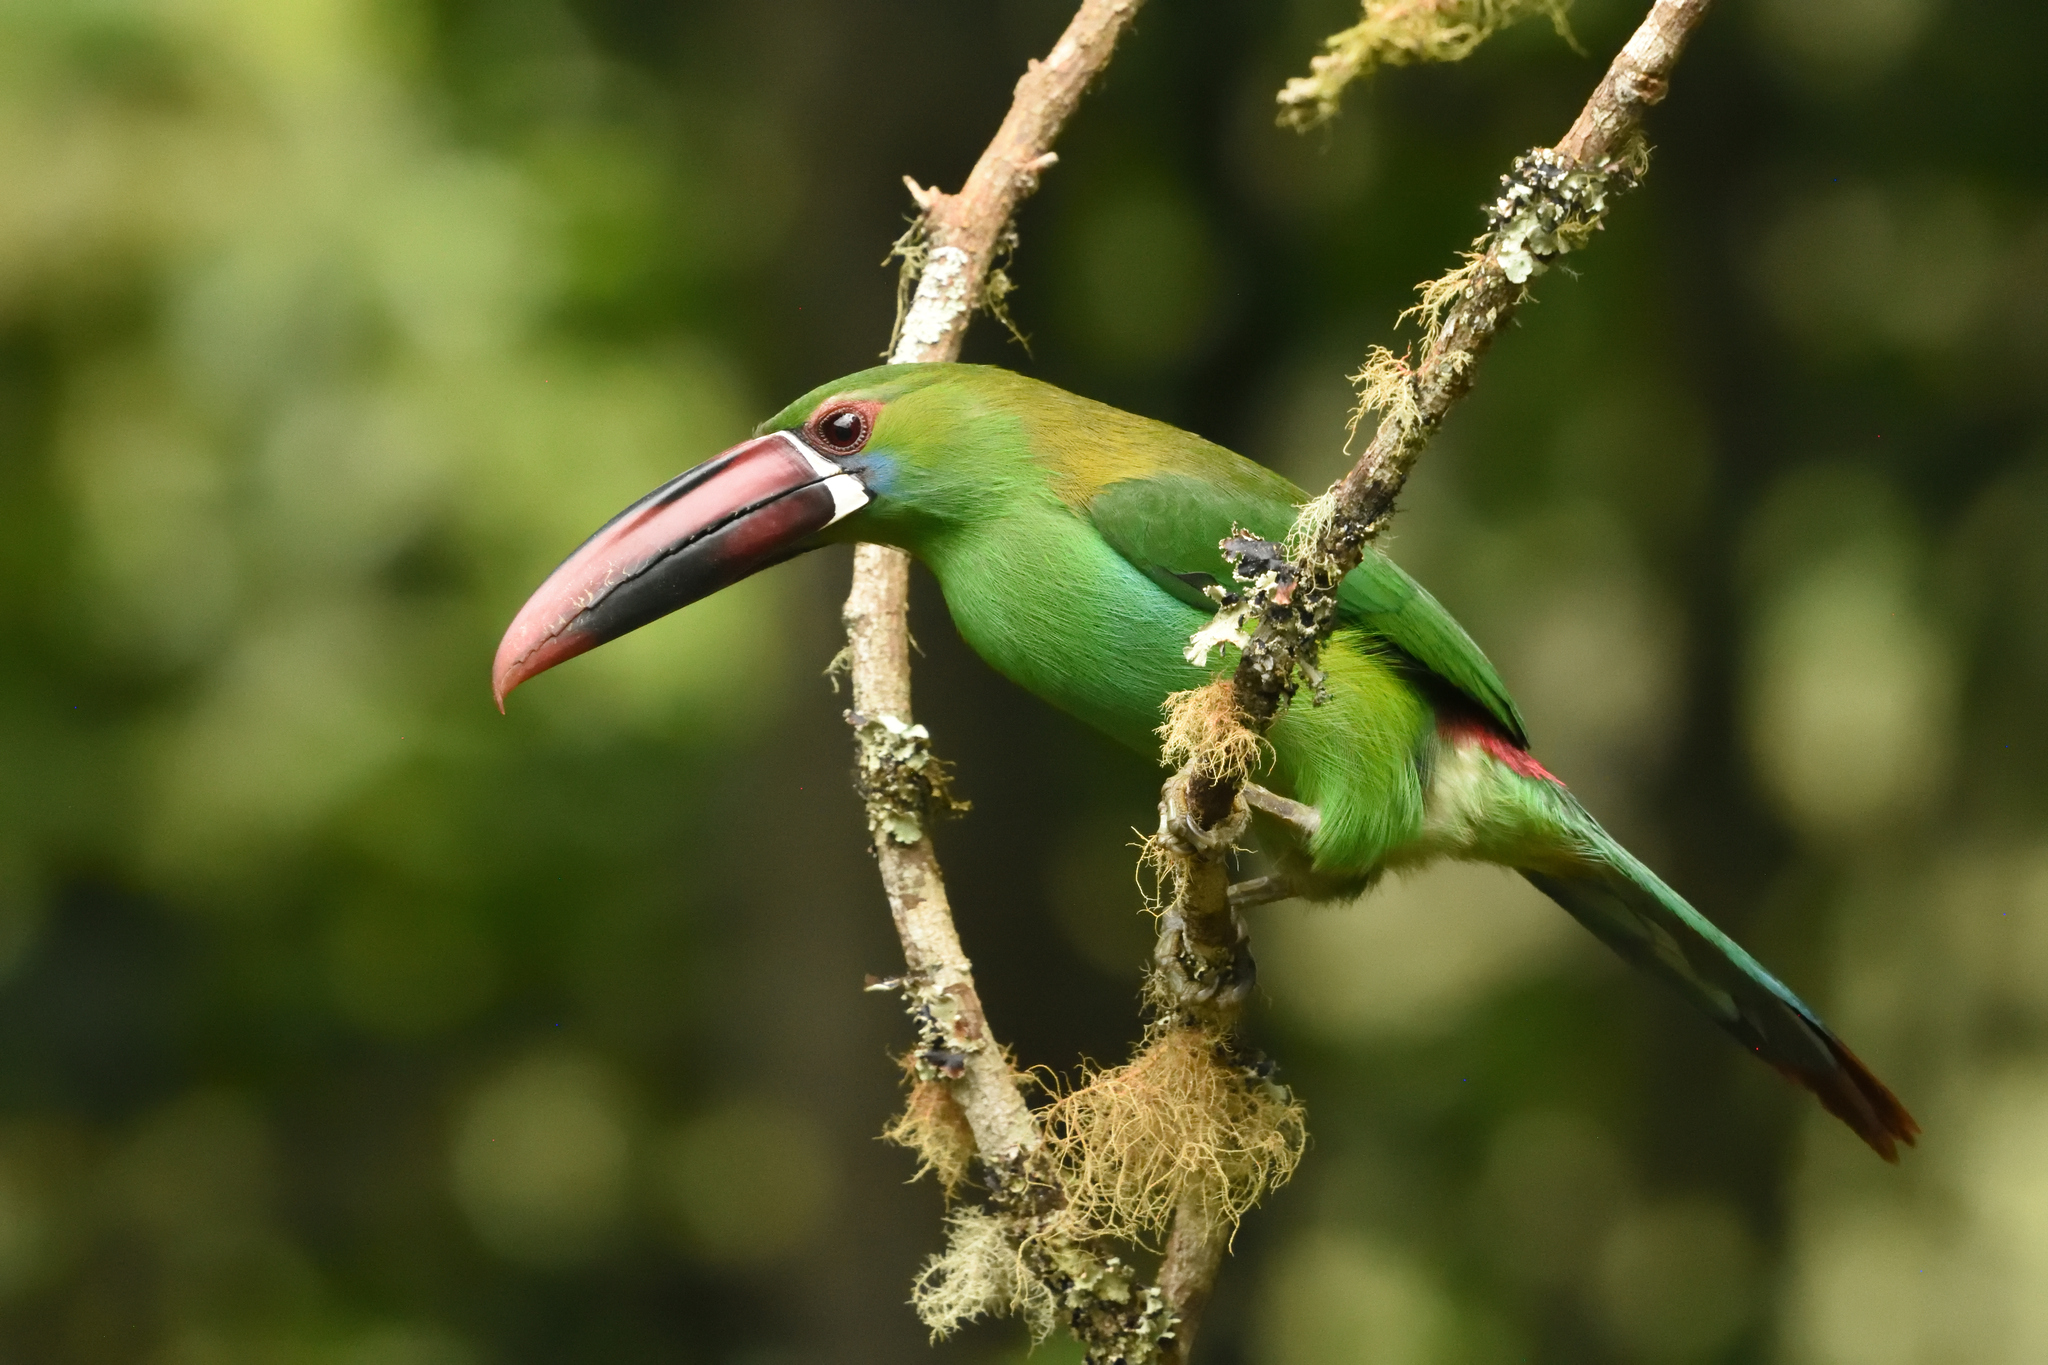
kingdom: Animalia
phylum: Chordata
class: Aves
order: Piciformes
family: Ramphastidae
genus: Aulacorhynchus
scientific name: Aulacorhynchus haematopygus
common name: Crimson-rumped toucanet
